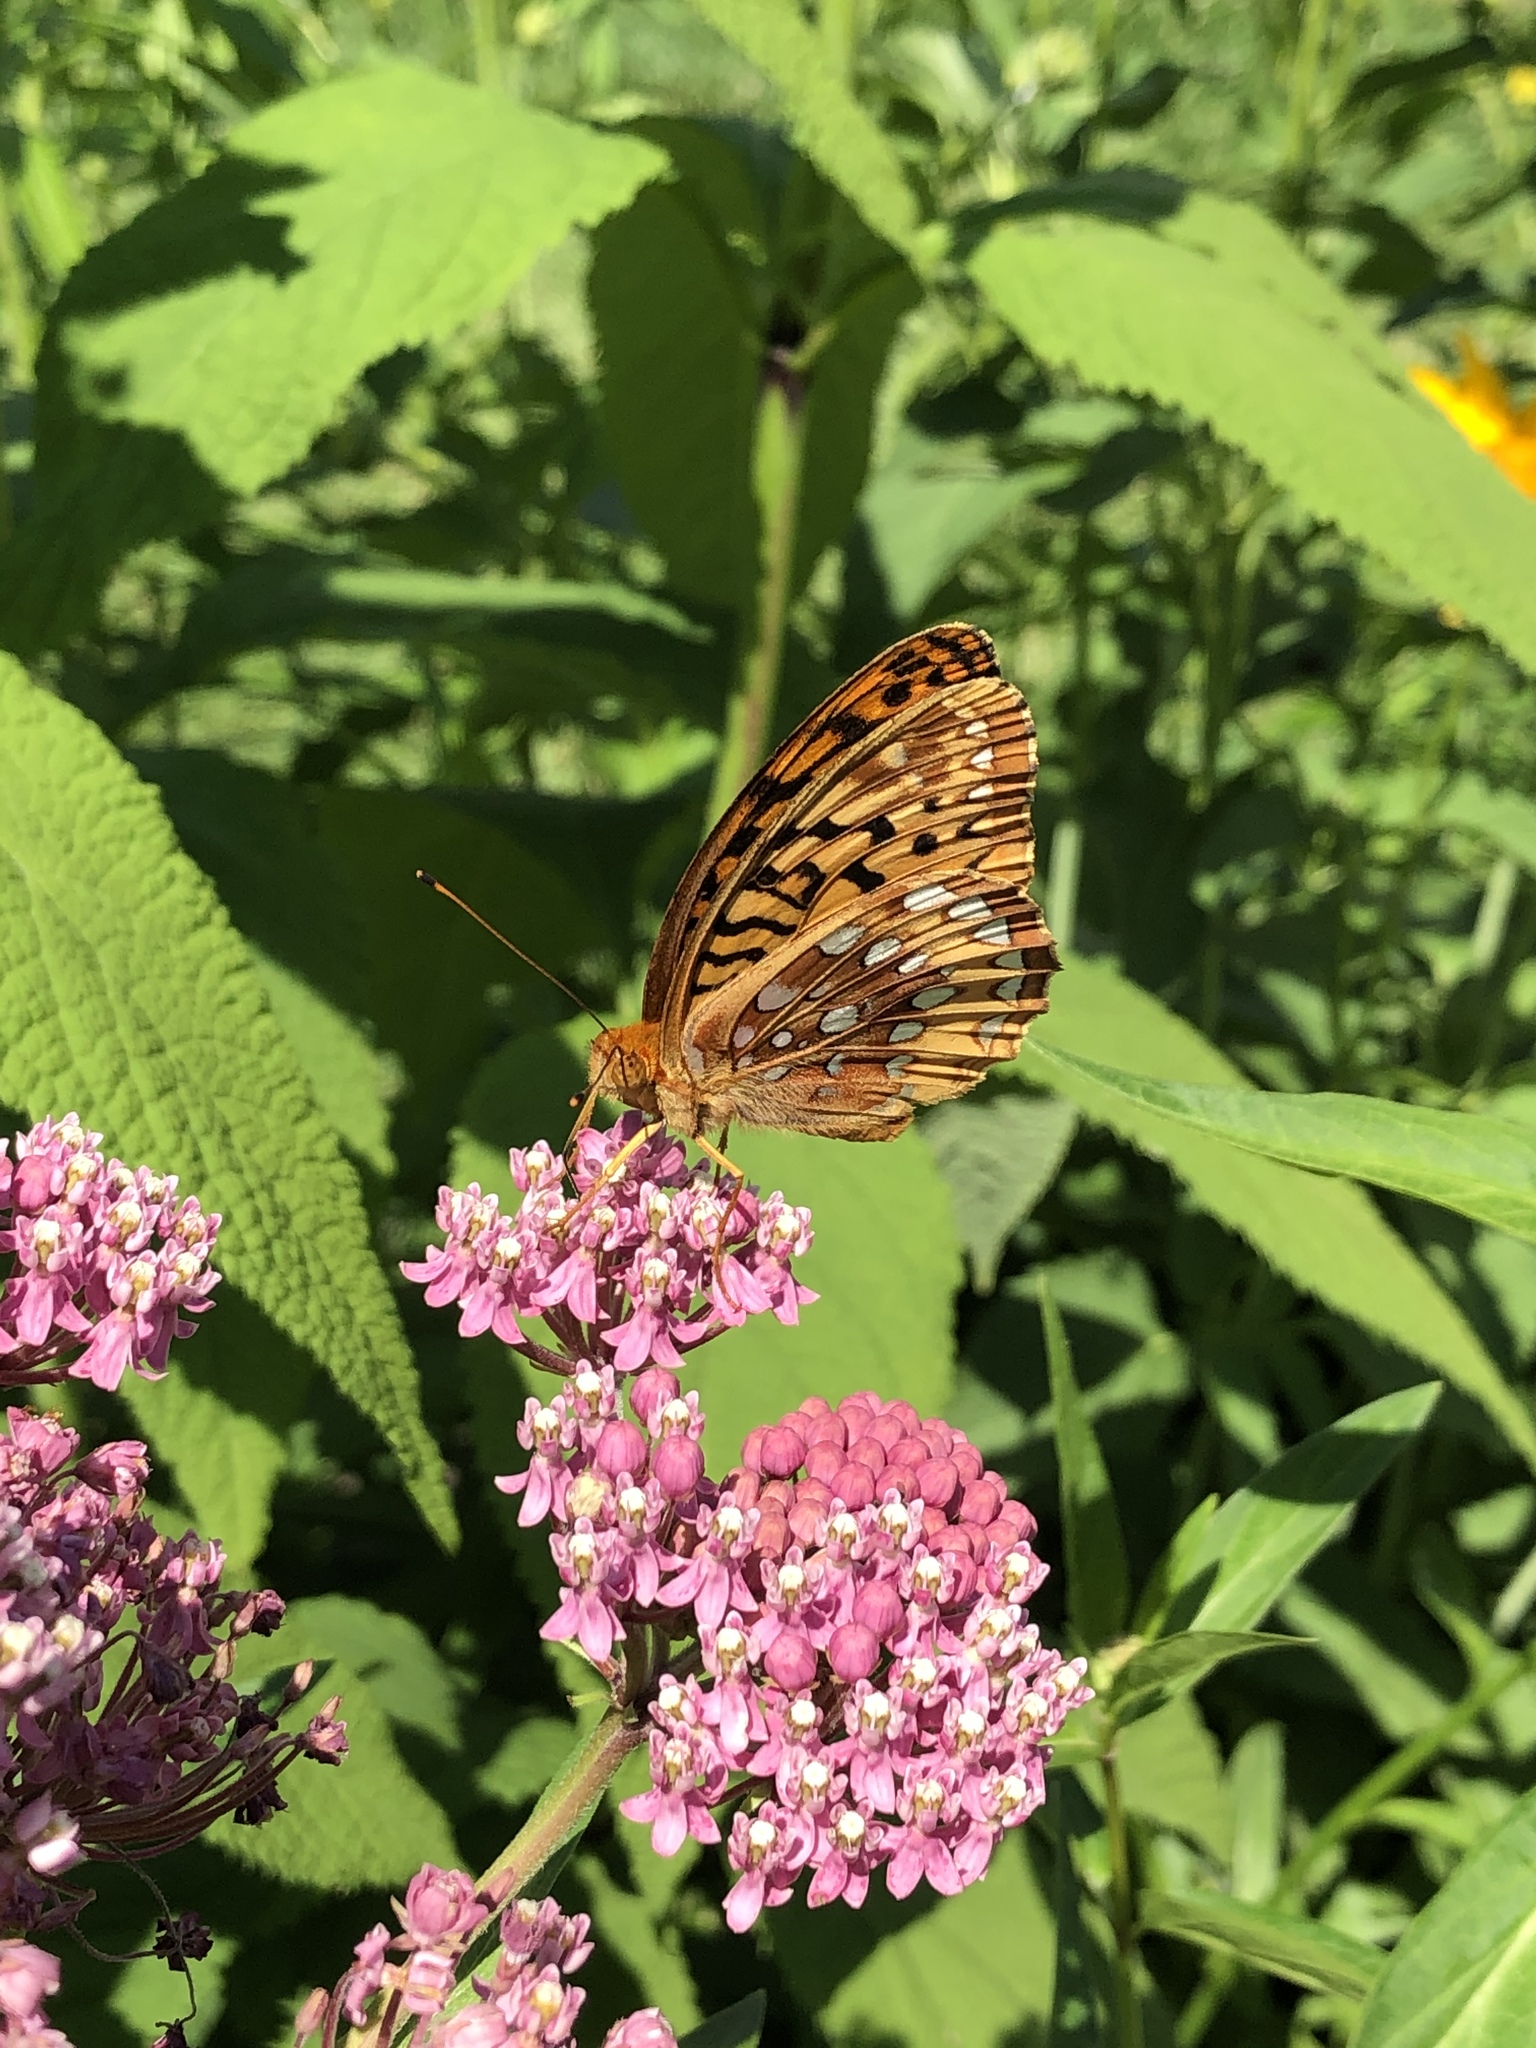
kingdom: Animalia
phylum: Arthropoda
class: Insecta
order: Lepidoptera
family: Nymphalidae
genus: Speyeria
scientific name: Speyeria cybele
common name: Great spangled fritillary
